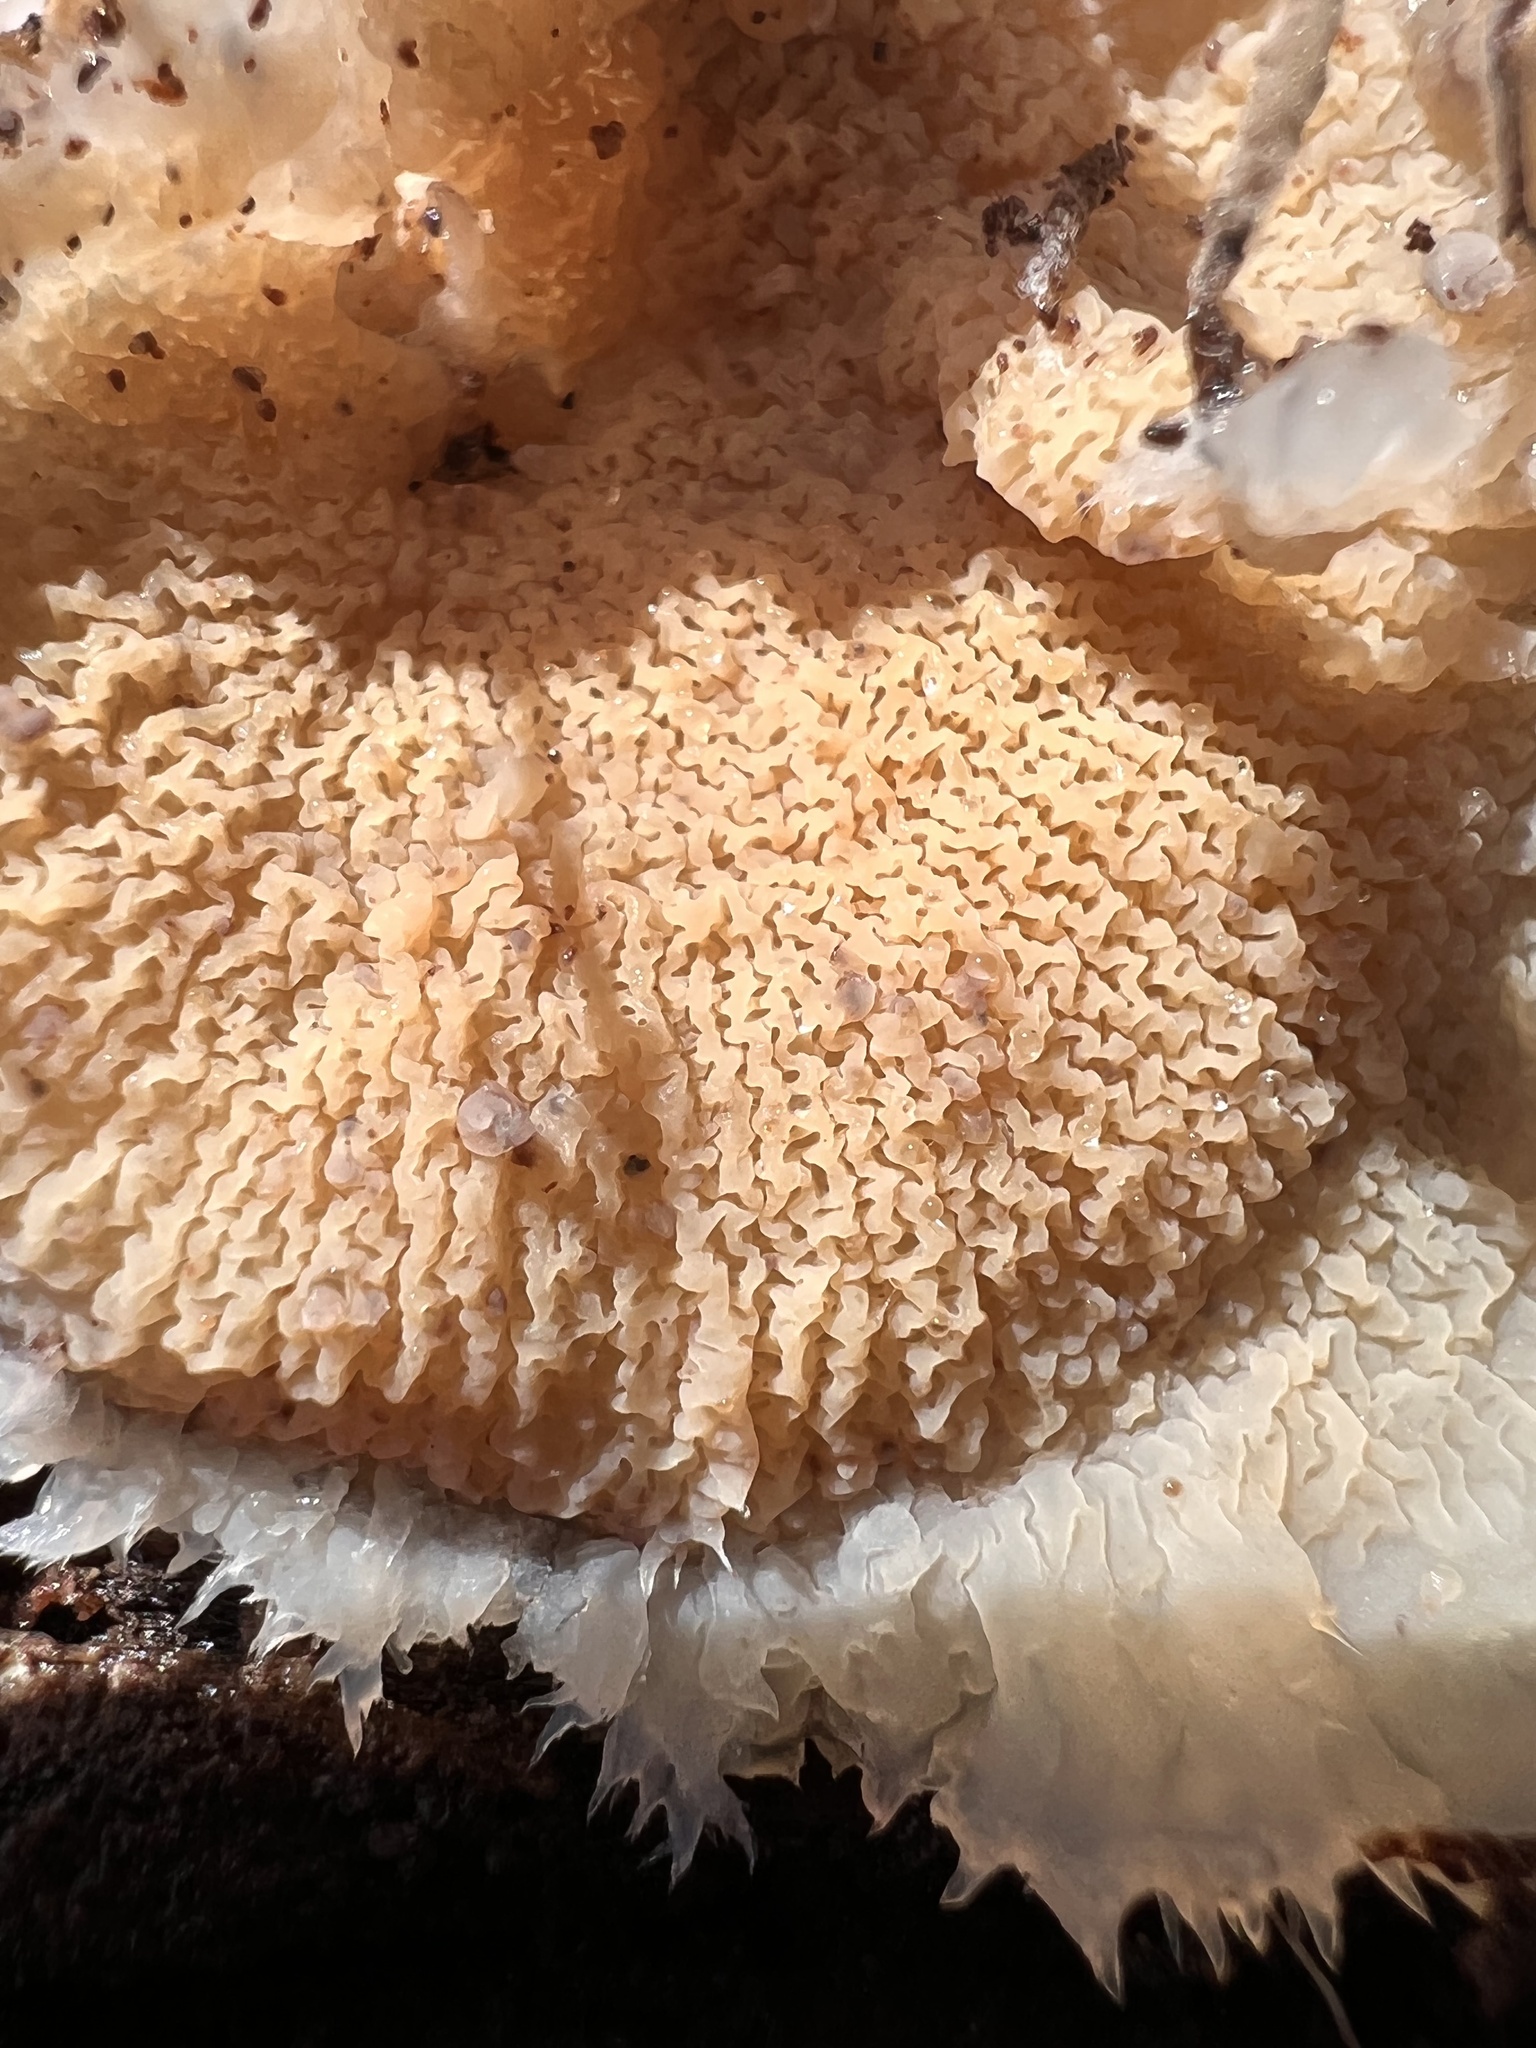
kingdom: Fungi
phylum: Basidiomycota
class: Agaricomycetes
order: Polyporales
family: Meruliaceae
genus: Phlebia
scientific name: Phlebia tremellosa
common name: Jelly rot
